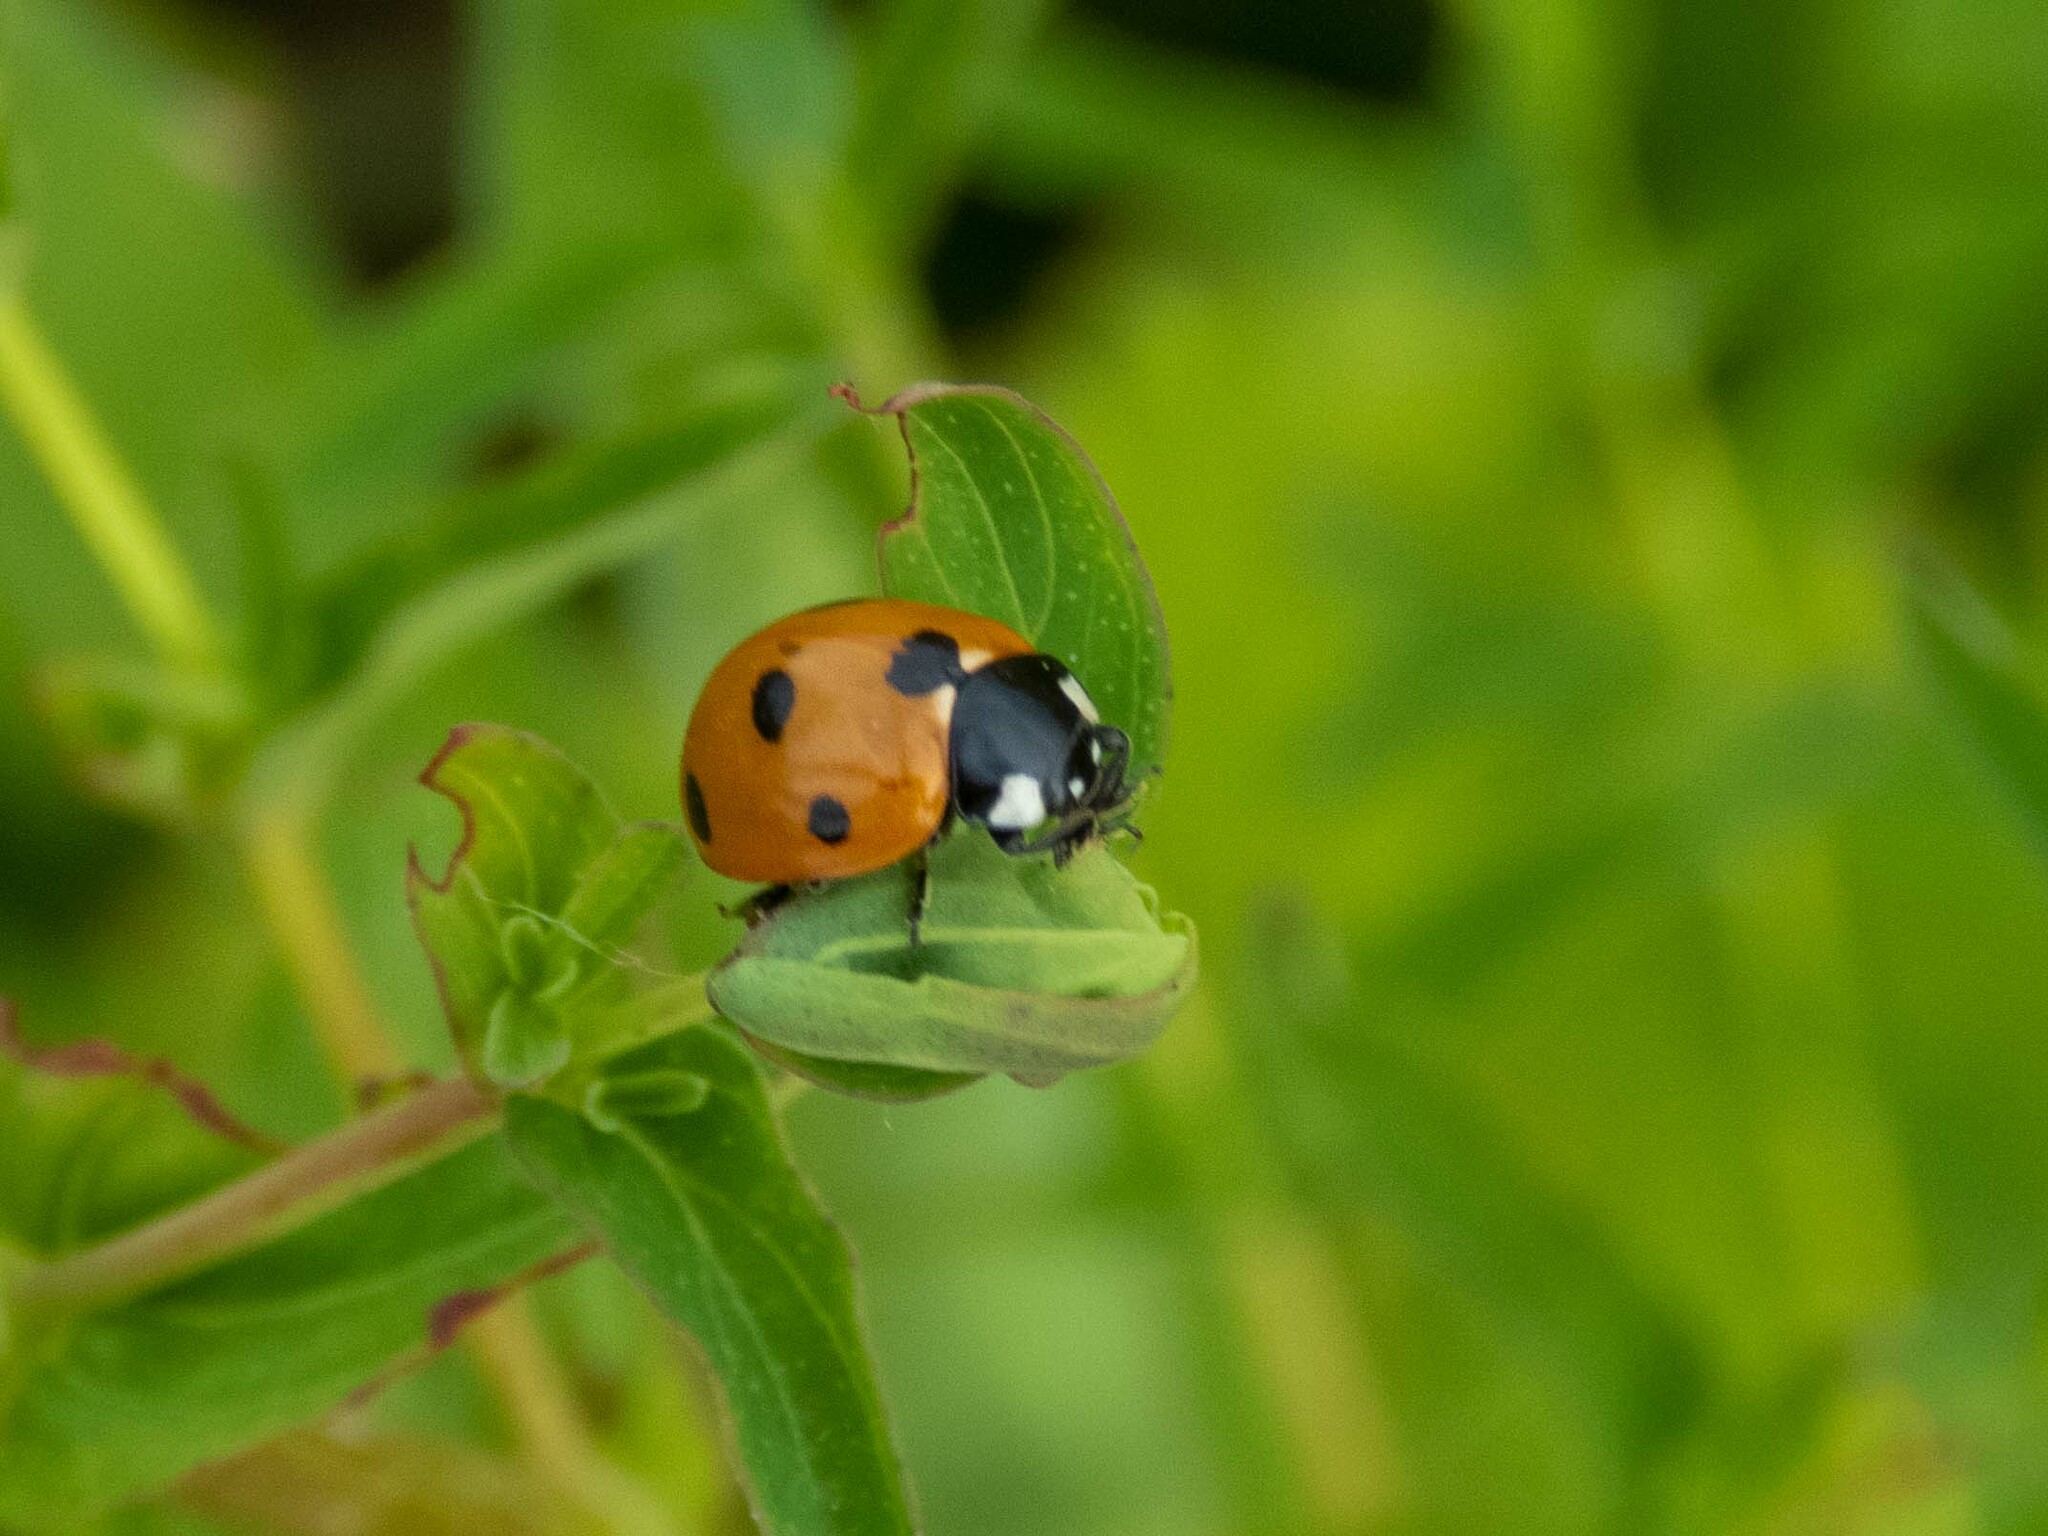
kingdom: Animalia
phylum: Arthropoda
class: Insecta
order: Coleoptera
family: Coccinellidae
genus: Coccinella
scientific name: Coccinella septempunctata
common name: Sevenspotted lady beetle
